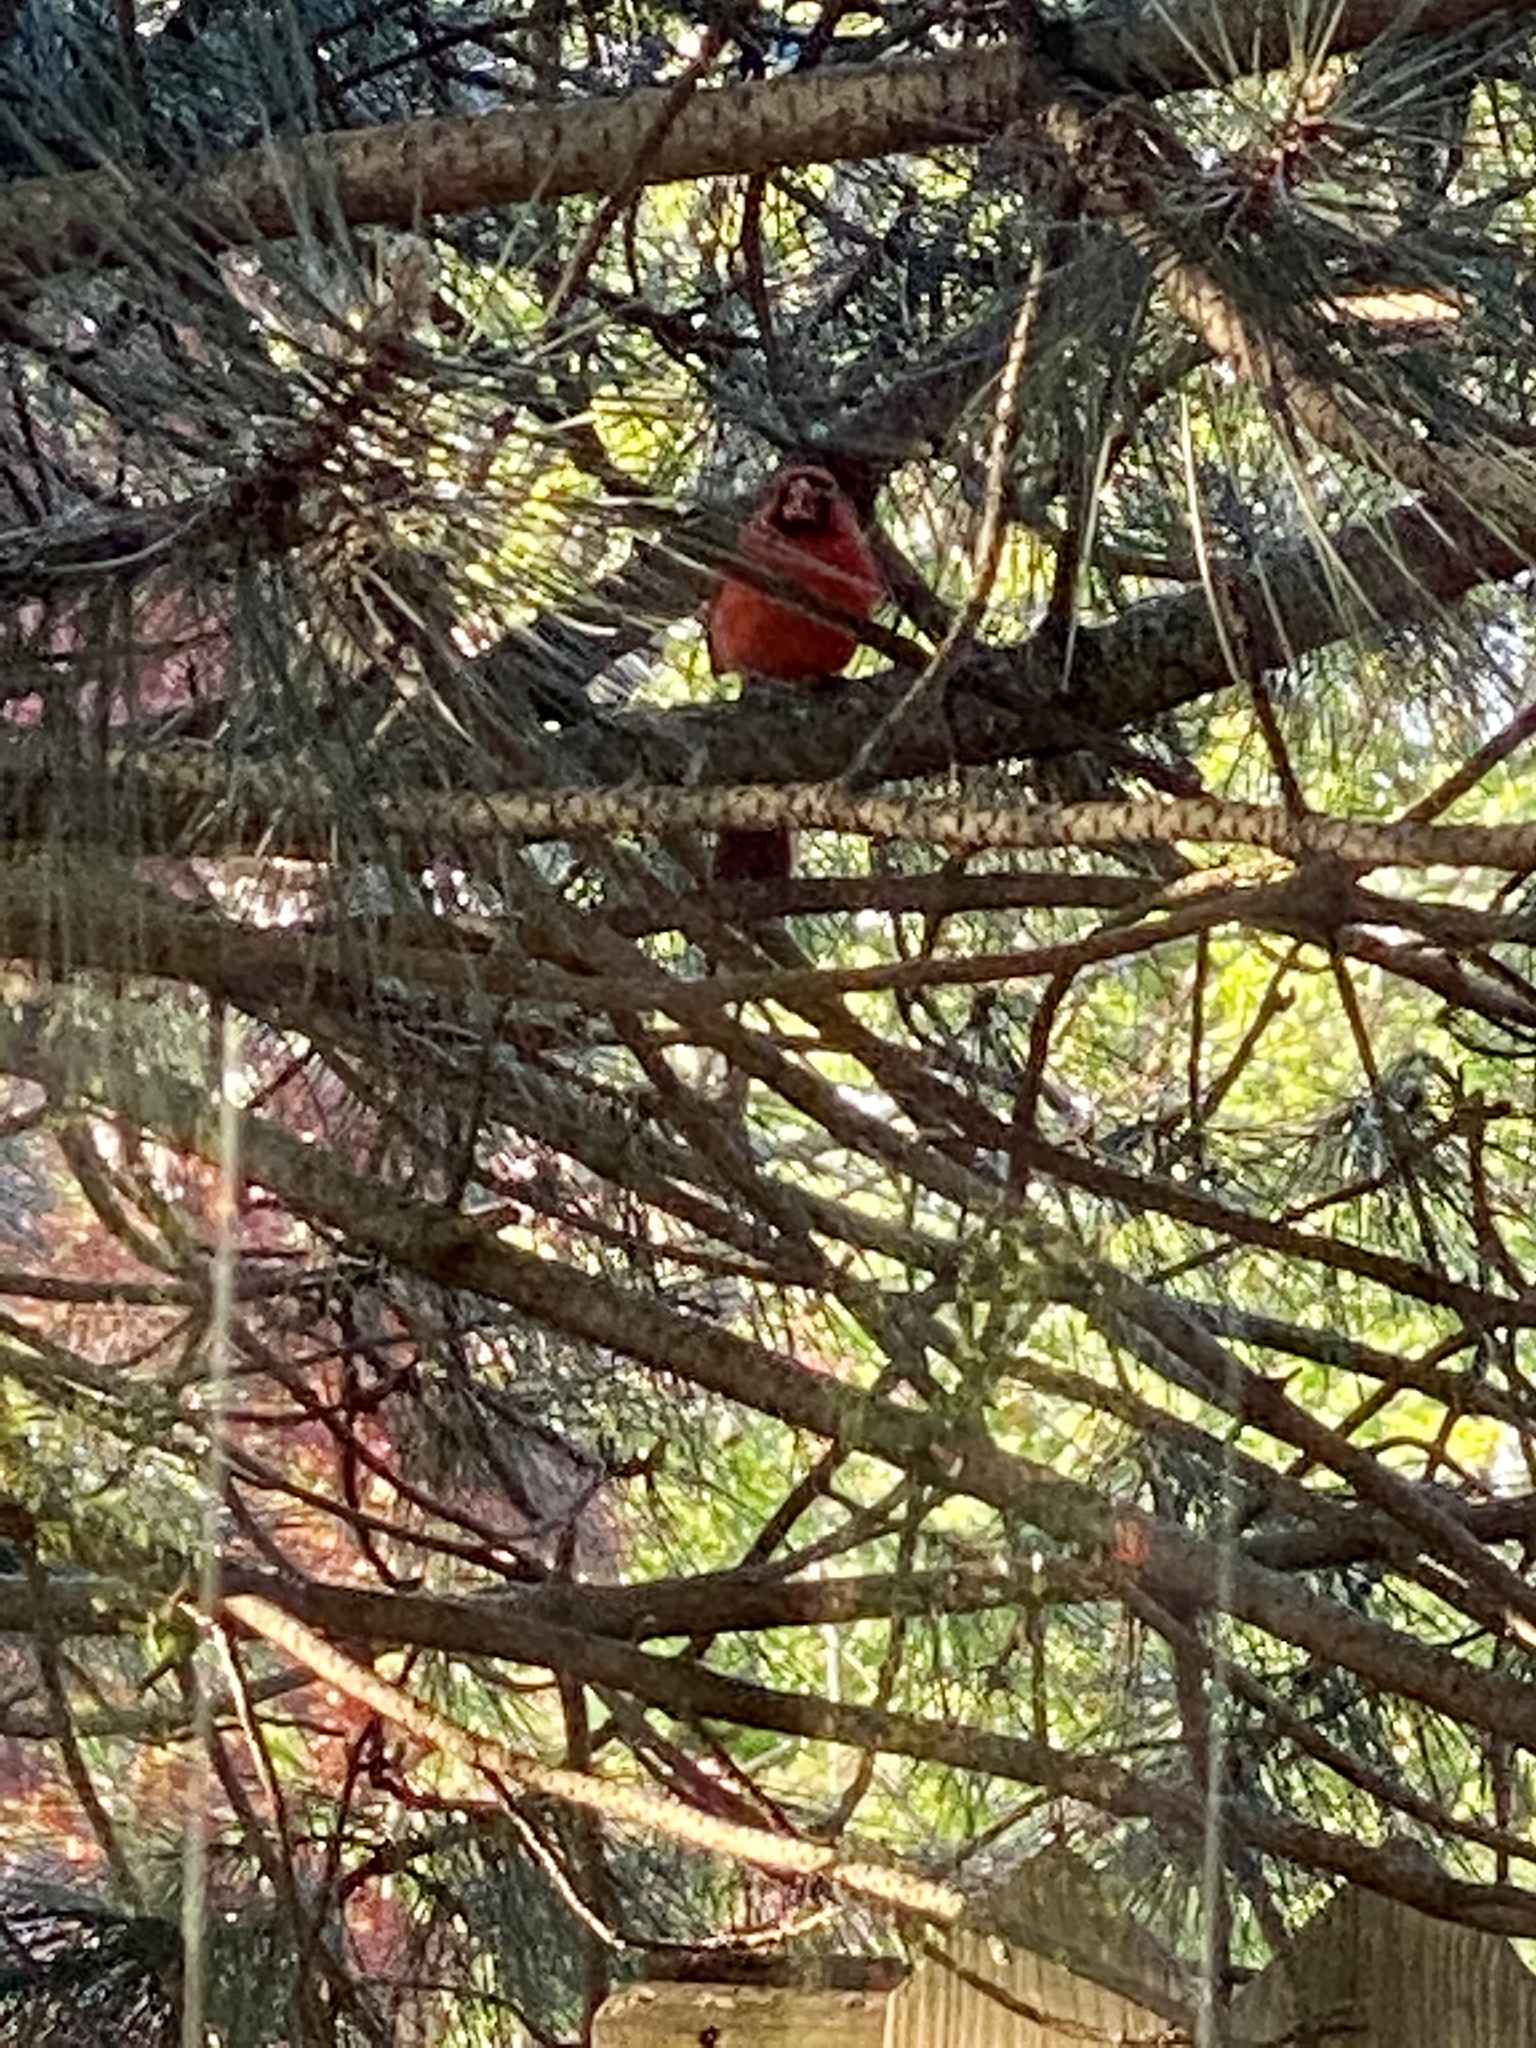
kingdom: Animalia
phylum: Chordata
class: Aves
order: Passeriformes
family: Cardinalidae
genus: Cardinalis
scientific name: Cardinalis cardinalis
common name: Northern cardinal
